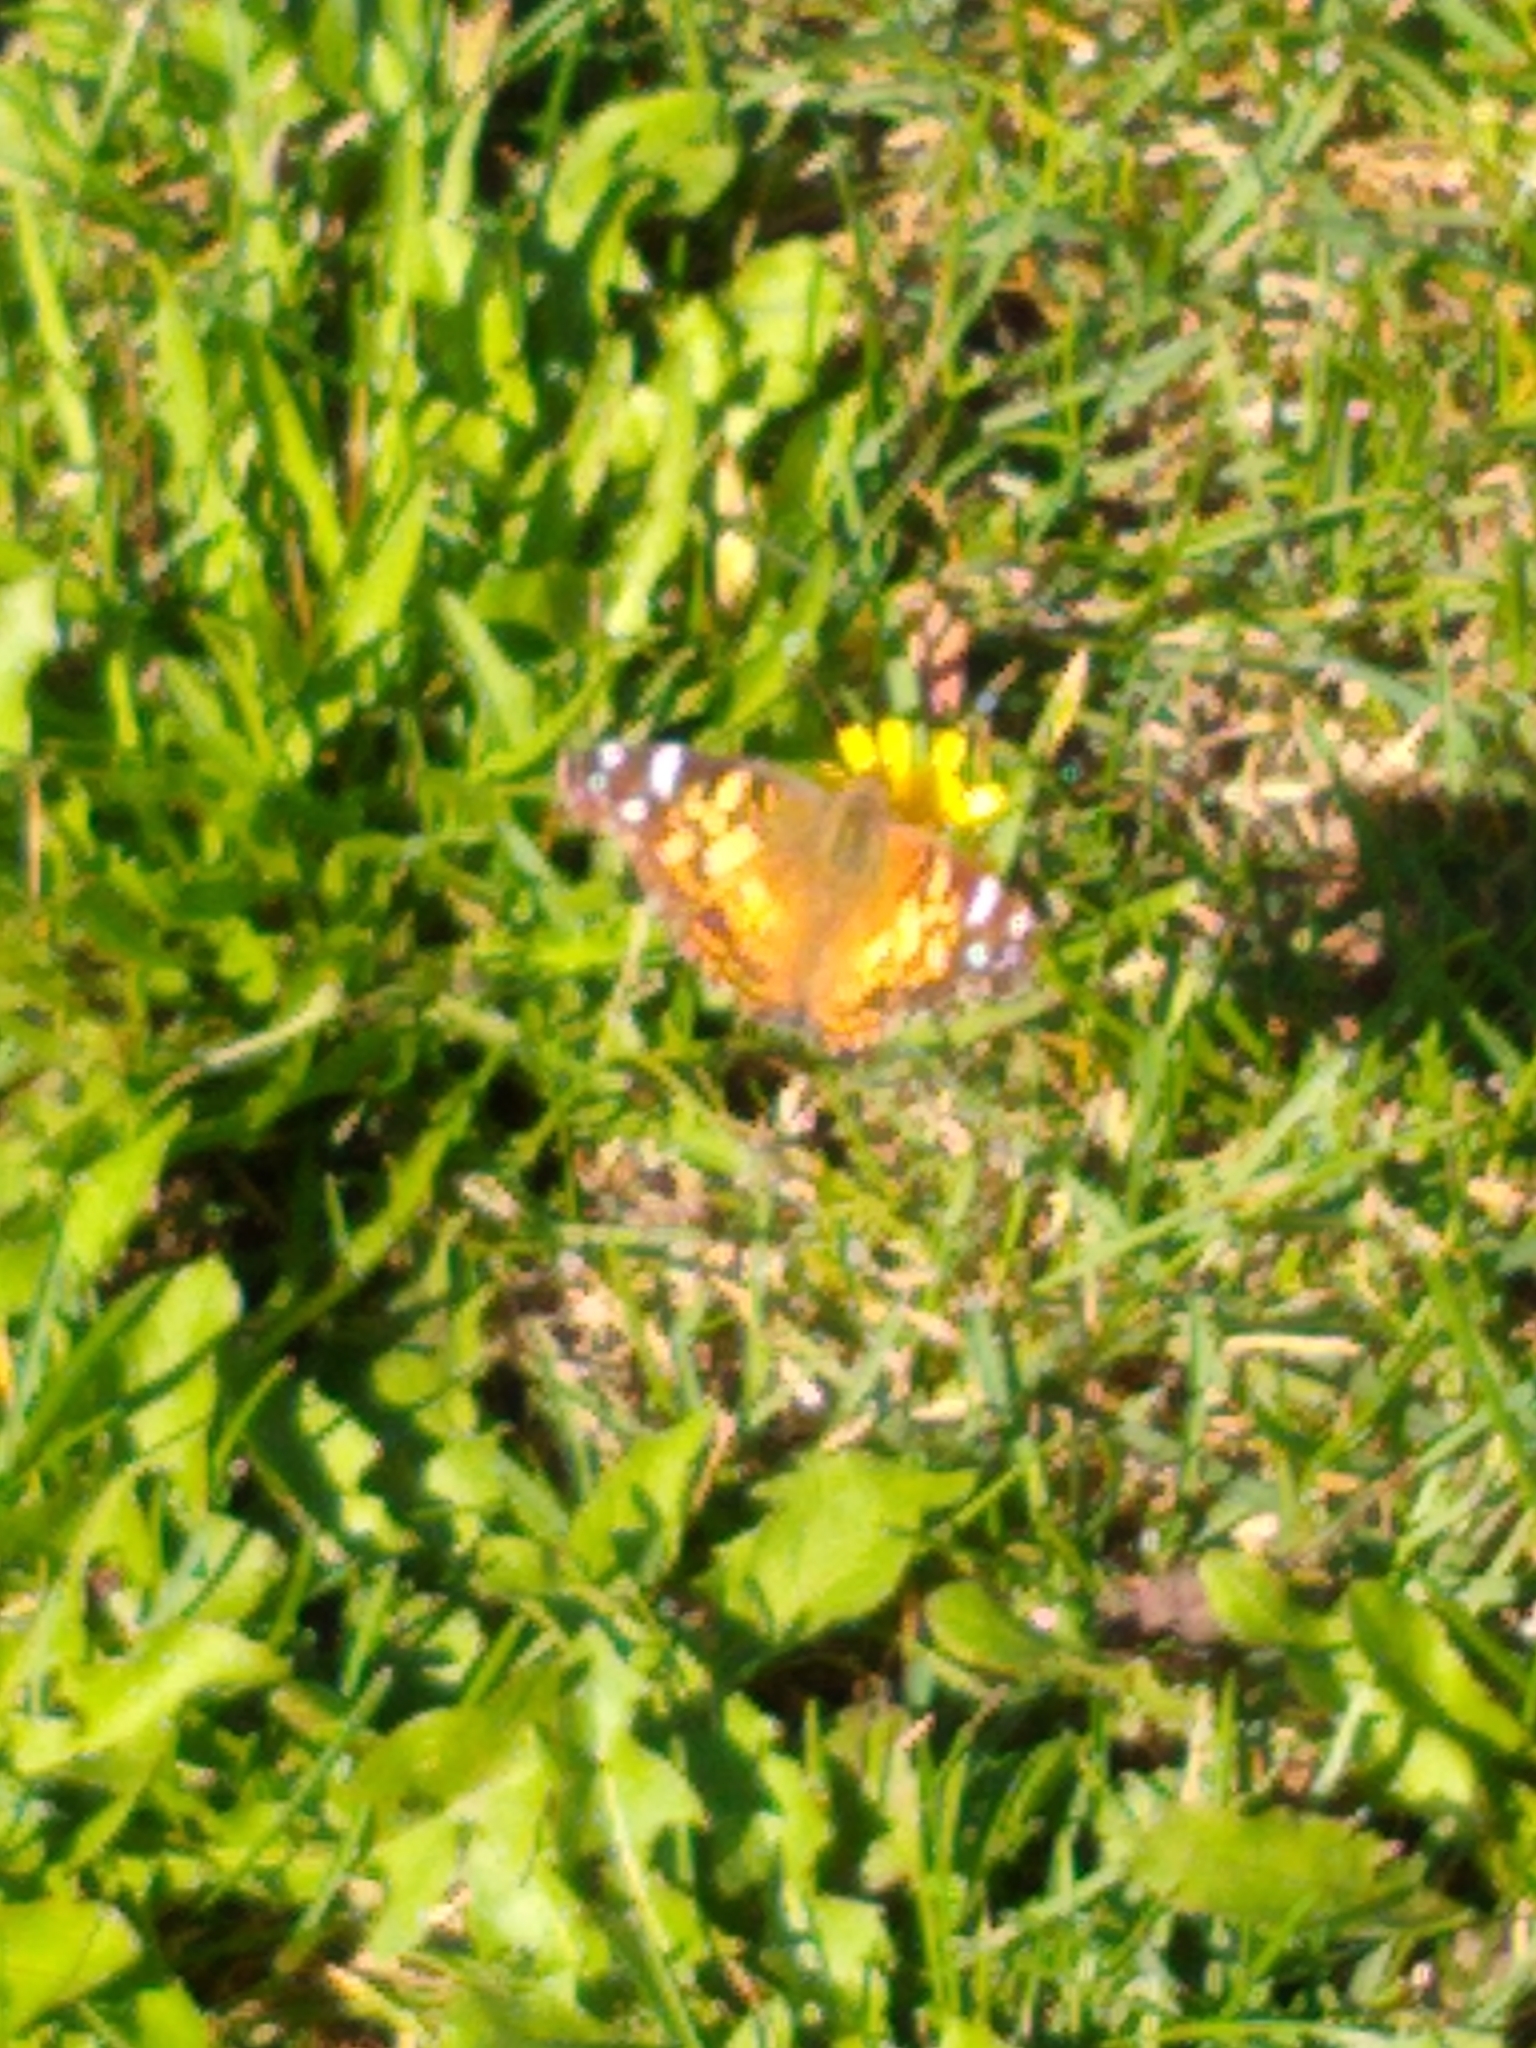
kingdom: Animalia
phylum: Arthropoda
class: Insecta
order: Lepidoptera
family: Nymphalidae
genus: Vanessa
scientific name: Vanessa virginiensis
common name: American lady
